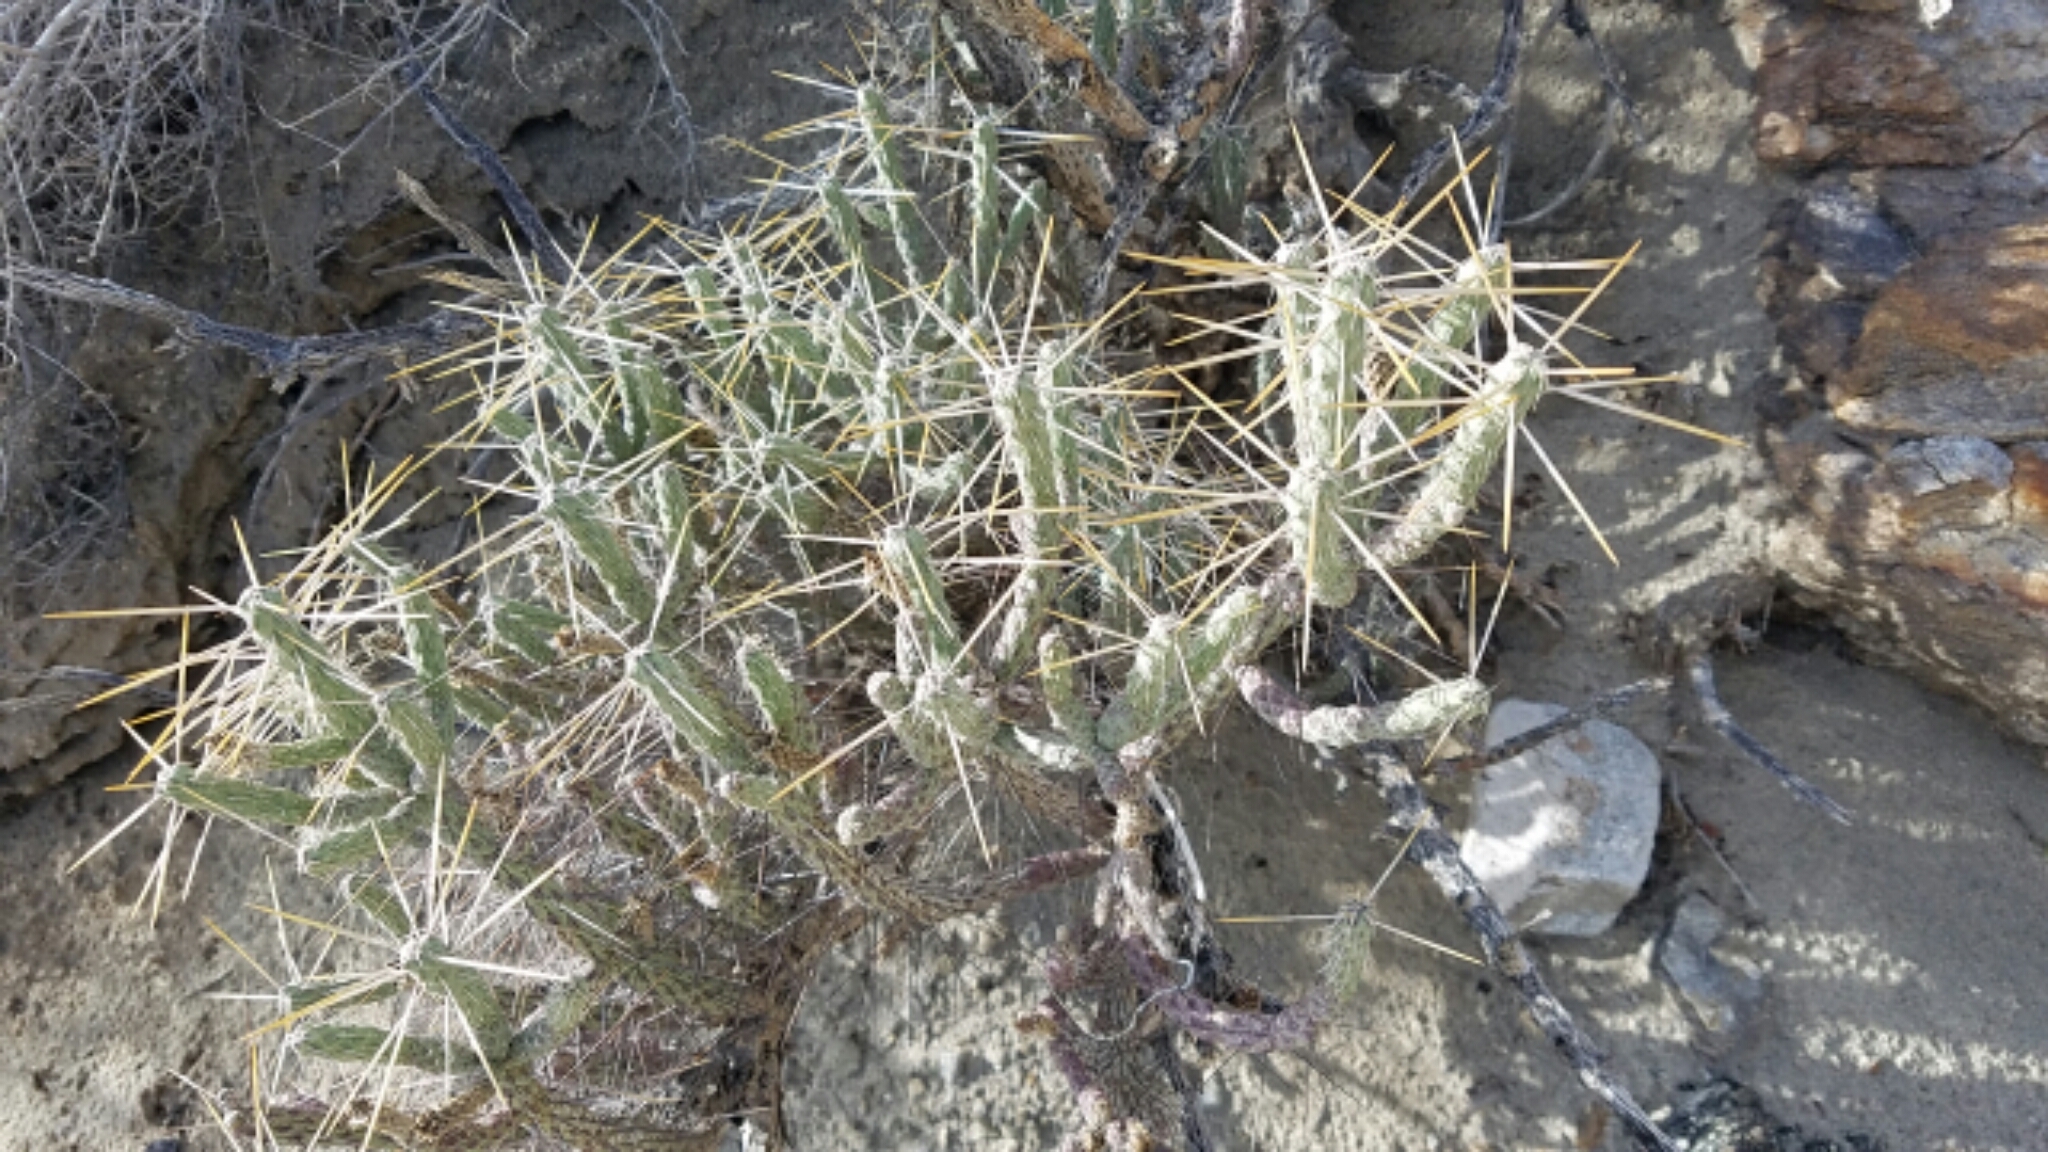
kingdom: Plantae
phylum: Tracheophyta
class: Magnoliopsida
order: Caryophyllales
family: Cactaceae
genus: Cylindropuntia
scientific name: Cylindropuntia ramosissima
